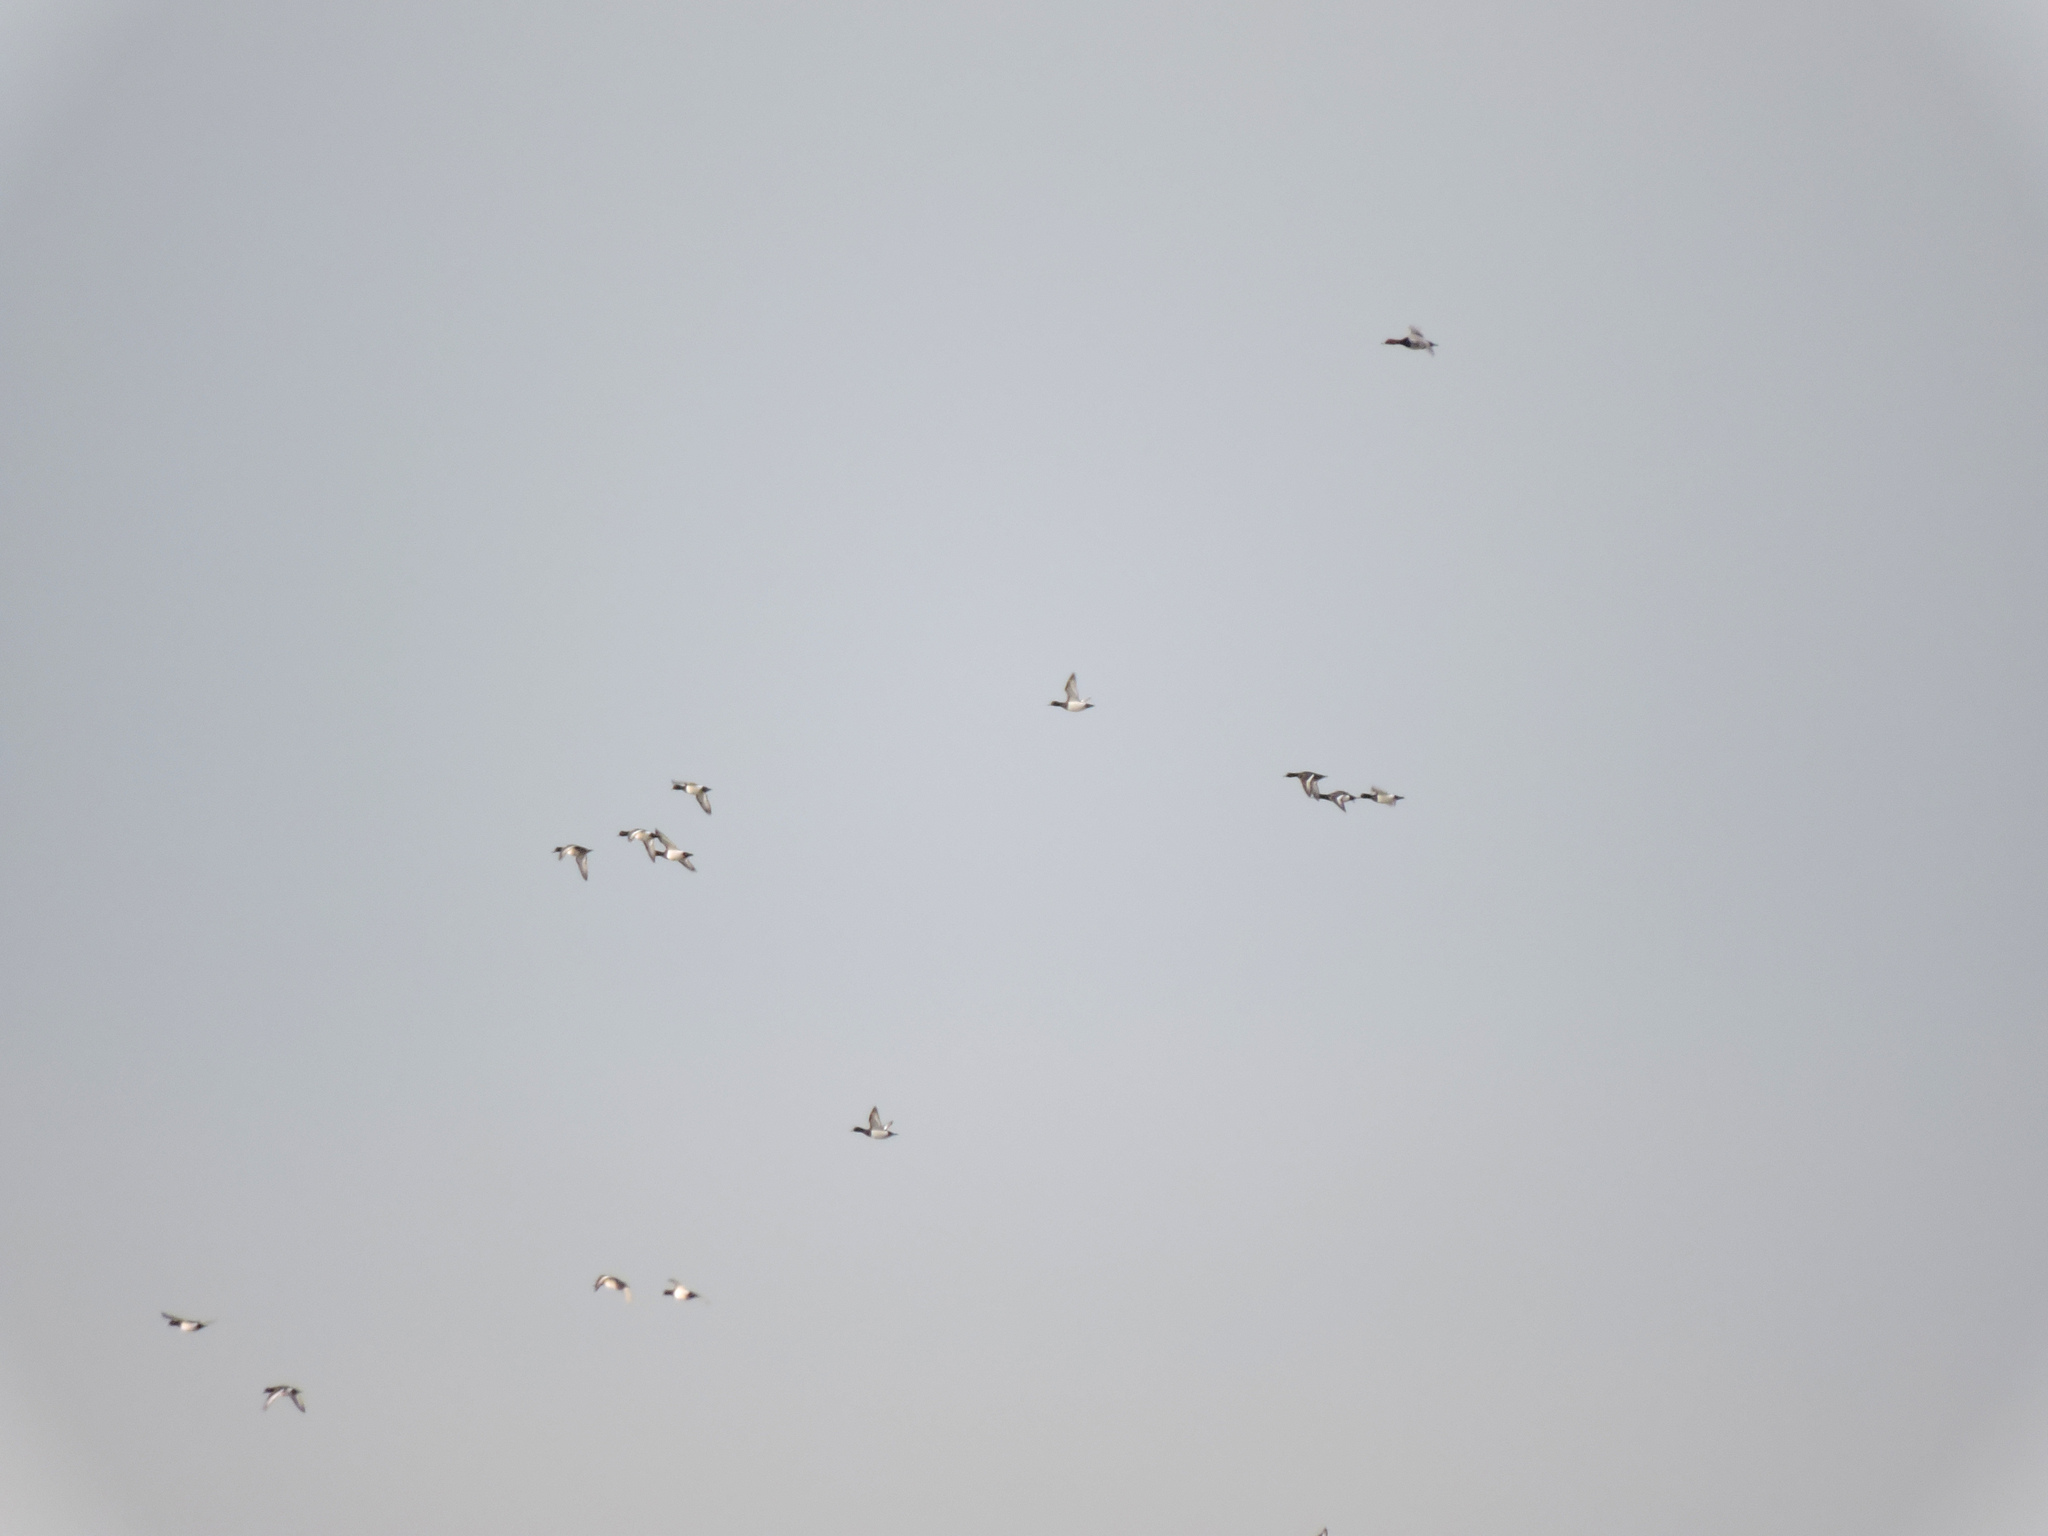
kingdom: Animalia
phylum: Chordata
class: Aves
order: Anseriformes
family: Anatidae
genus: Aythya
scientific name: Aythya fuligula
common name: Tufted duck
